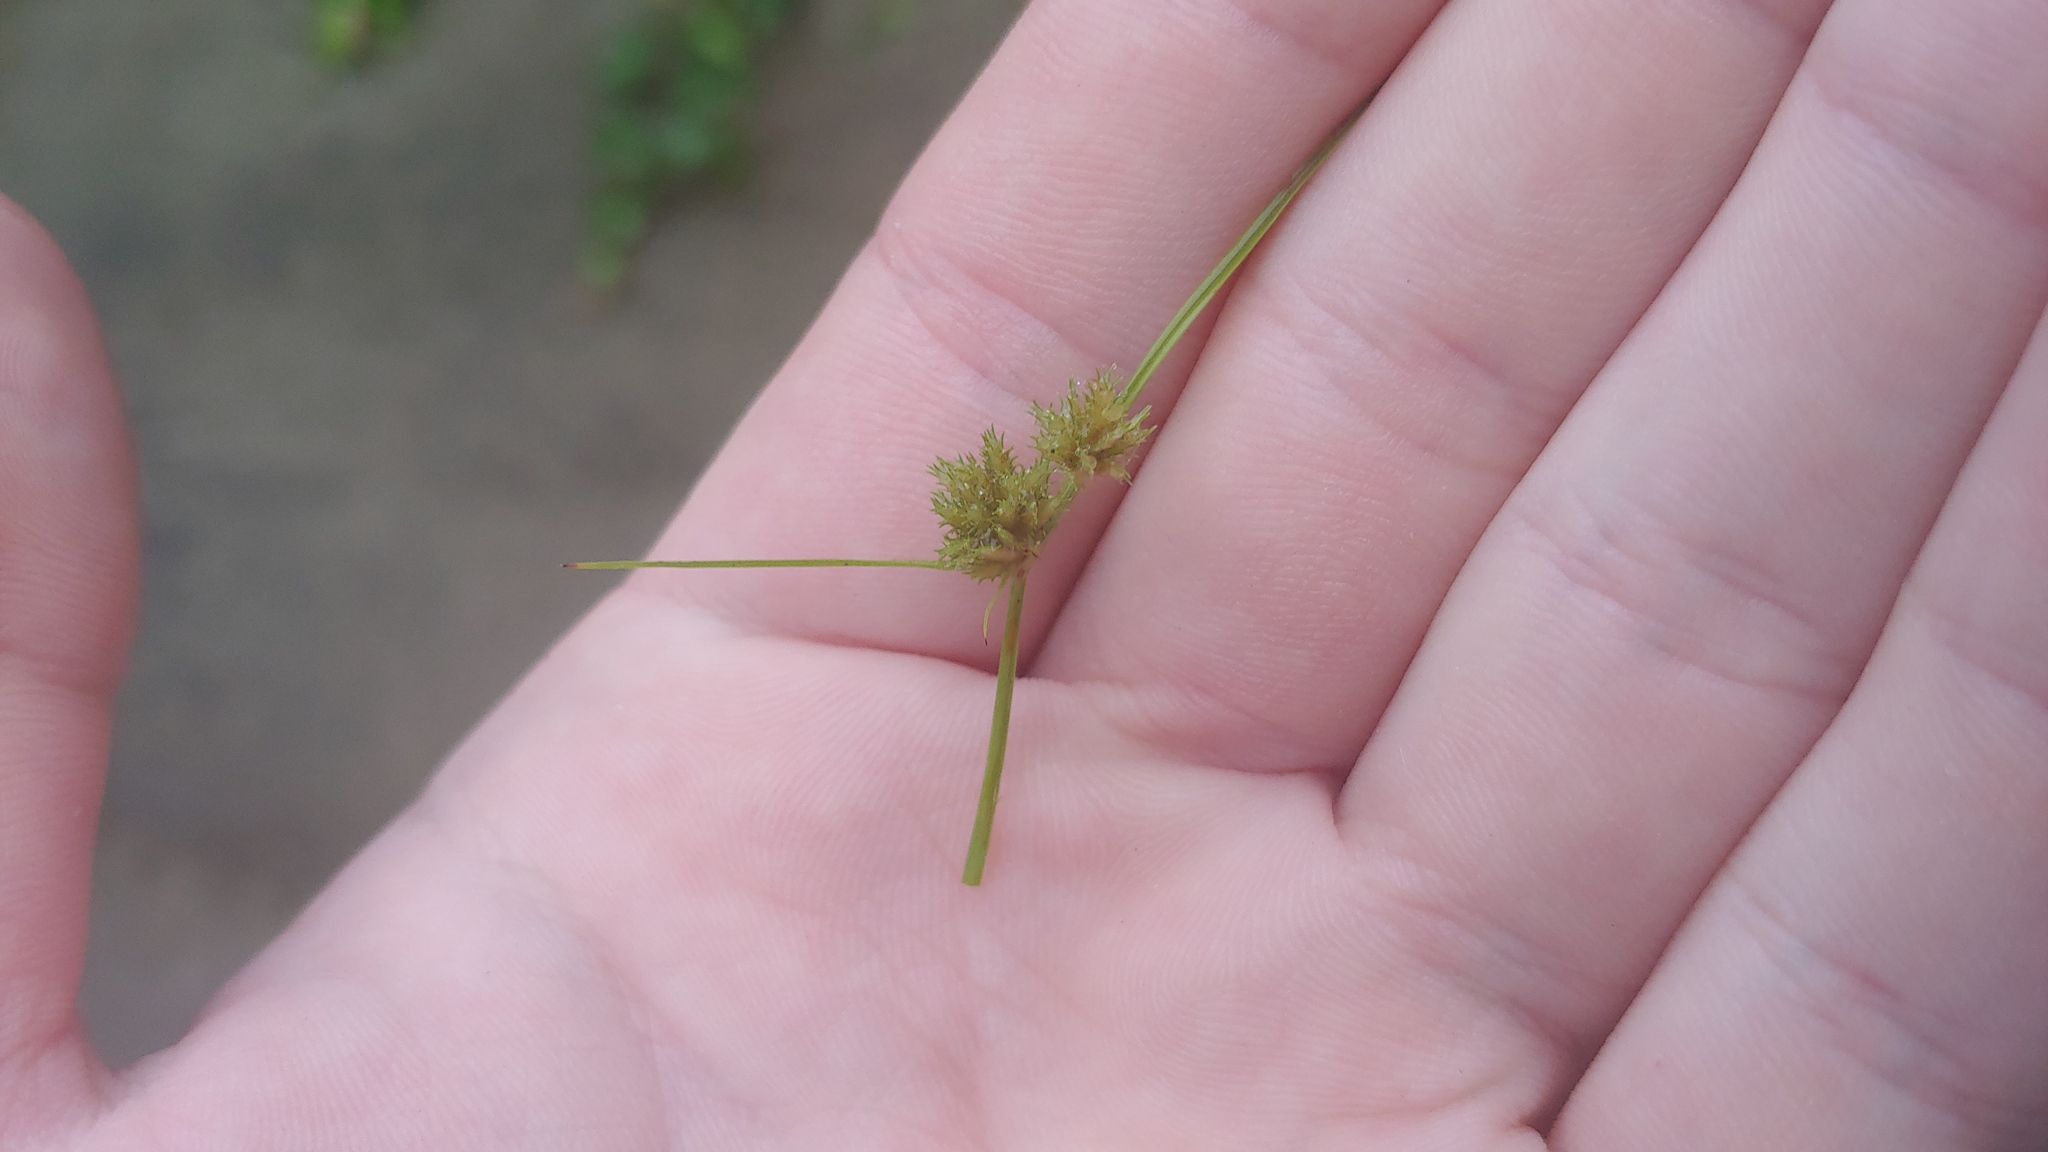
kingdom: Plantae
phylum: Tracheophyta
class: Liliopsida
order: Poales
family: Cyperaceae
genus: Cyperus
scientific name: Cyperus squarrosus
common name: Awned cyperus
